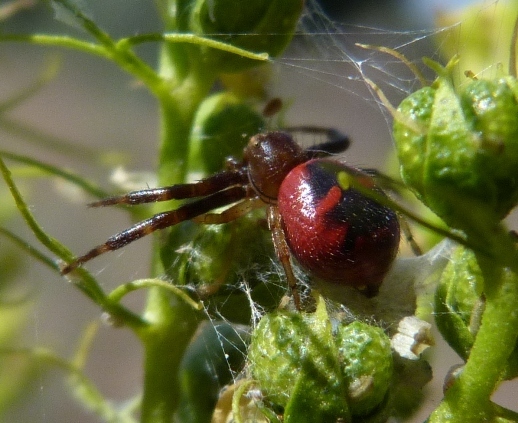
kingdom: Animalia
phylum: Arthropoda
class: Arachnida
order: Araneae
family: Thomisidae
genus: Synema
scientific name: Synema globosum
